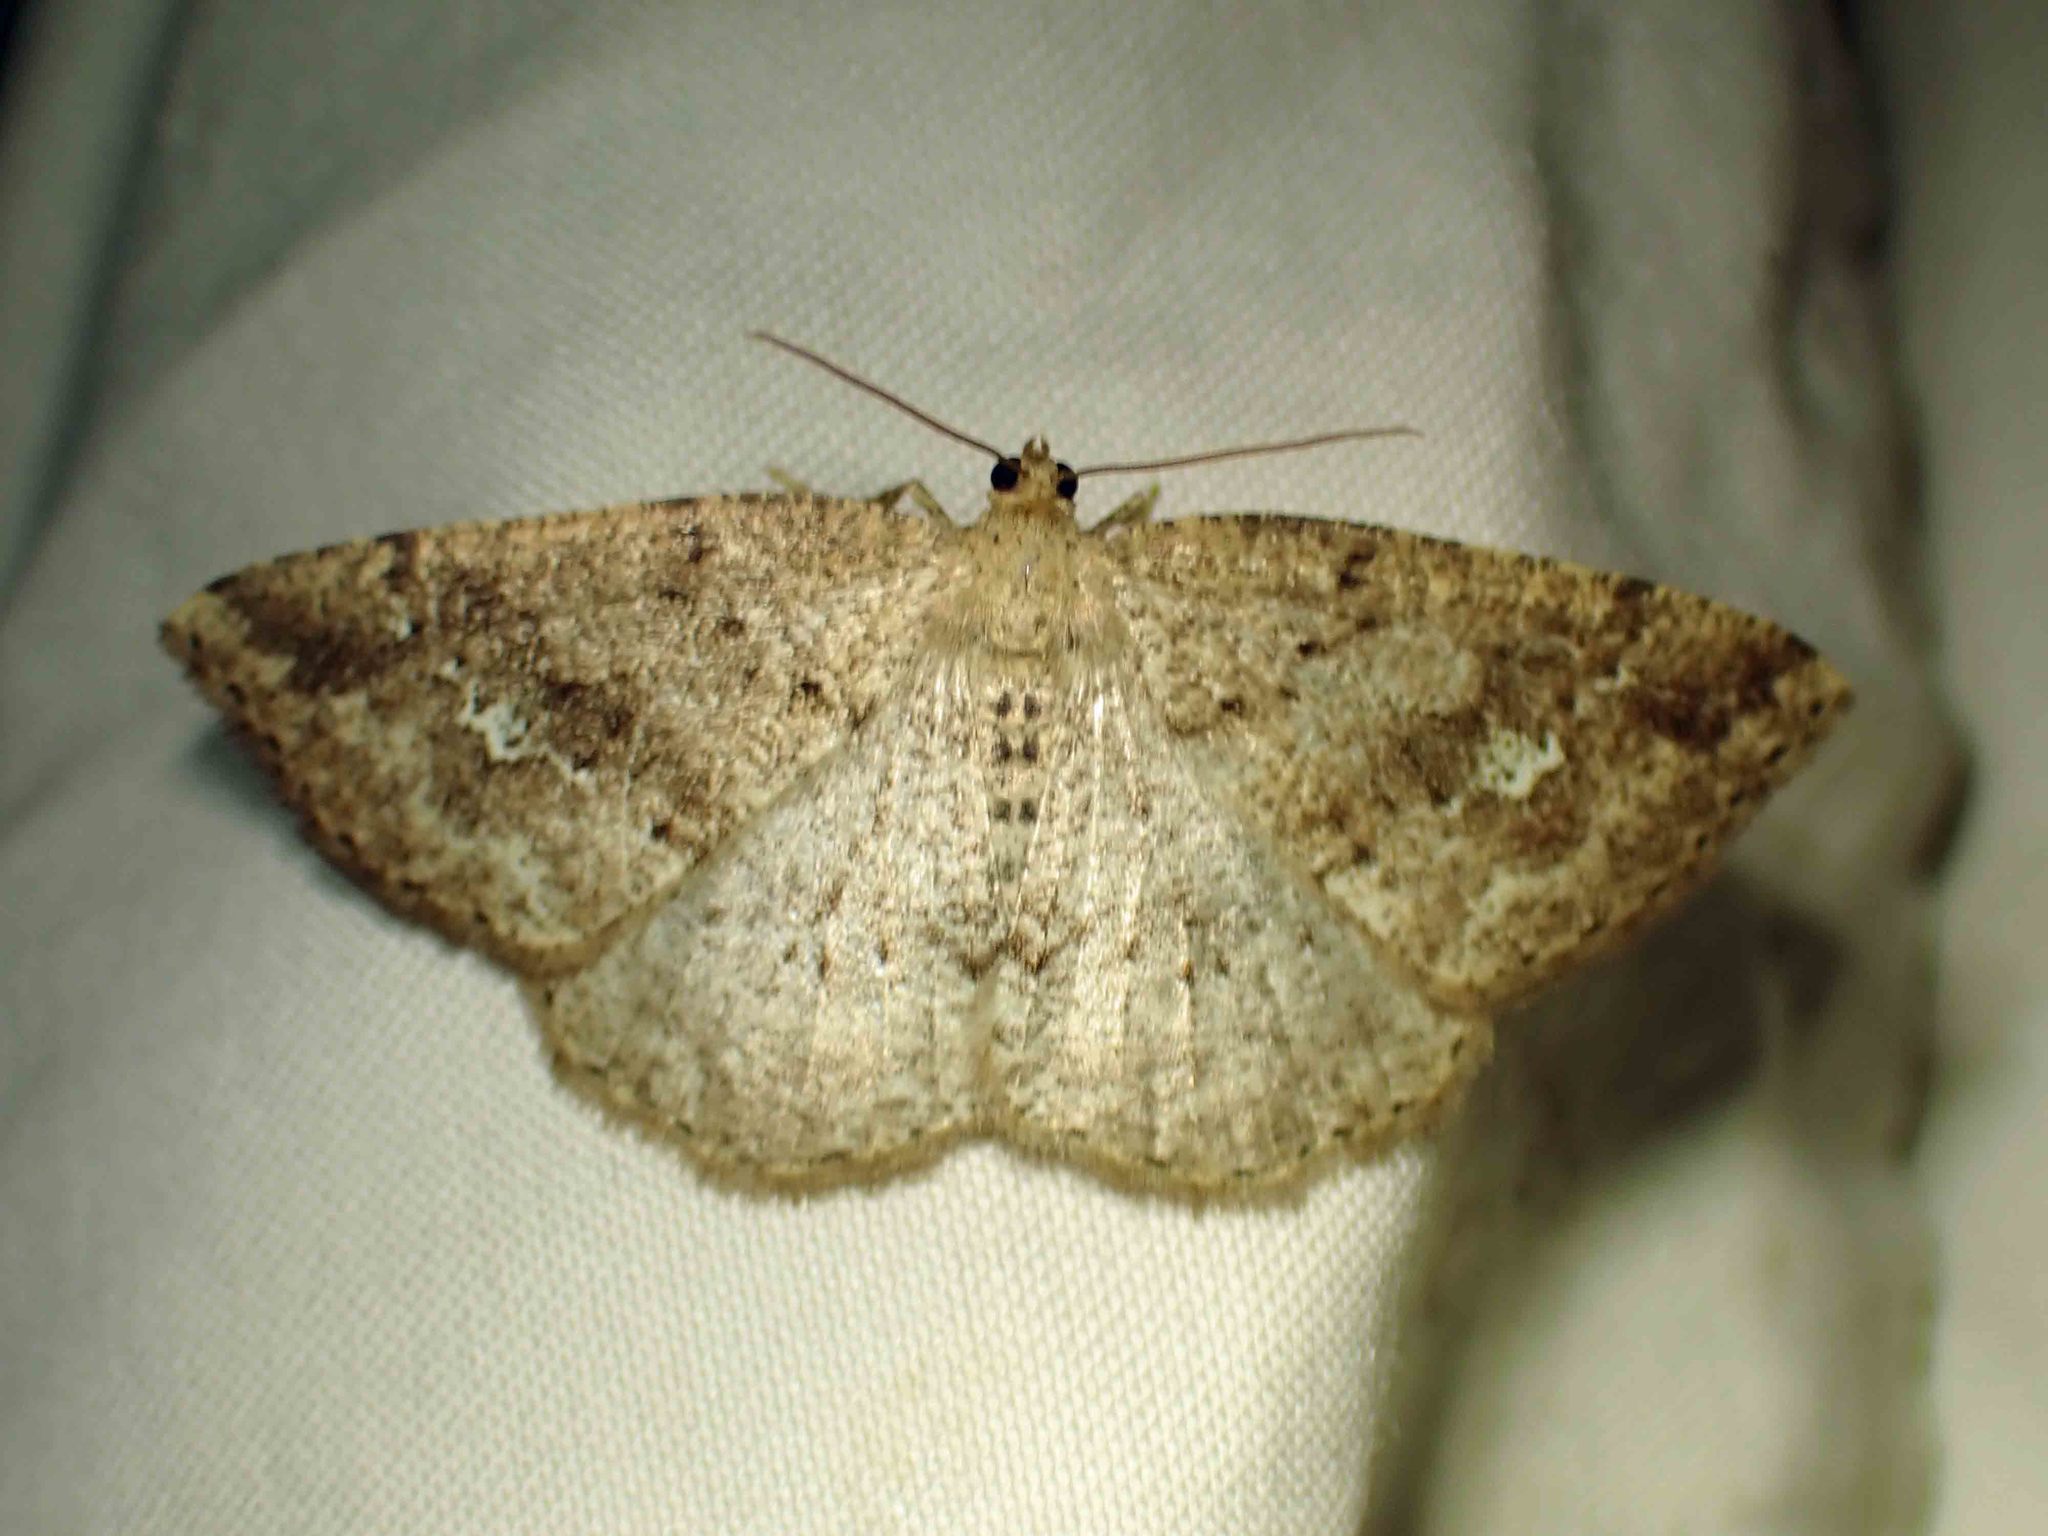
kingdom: Animalia
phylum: Arthropoda
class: Insecta
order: Lepidoptera
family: Geometridae
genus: Homochlodes
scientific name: Homochlodes fritillaria
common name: Pale homochlodes
